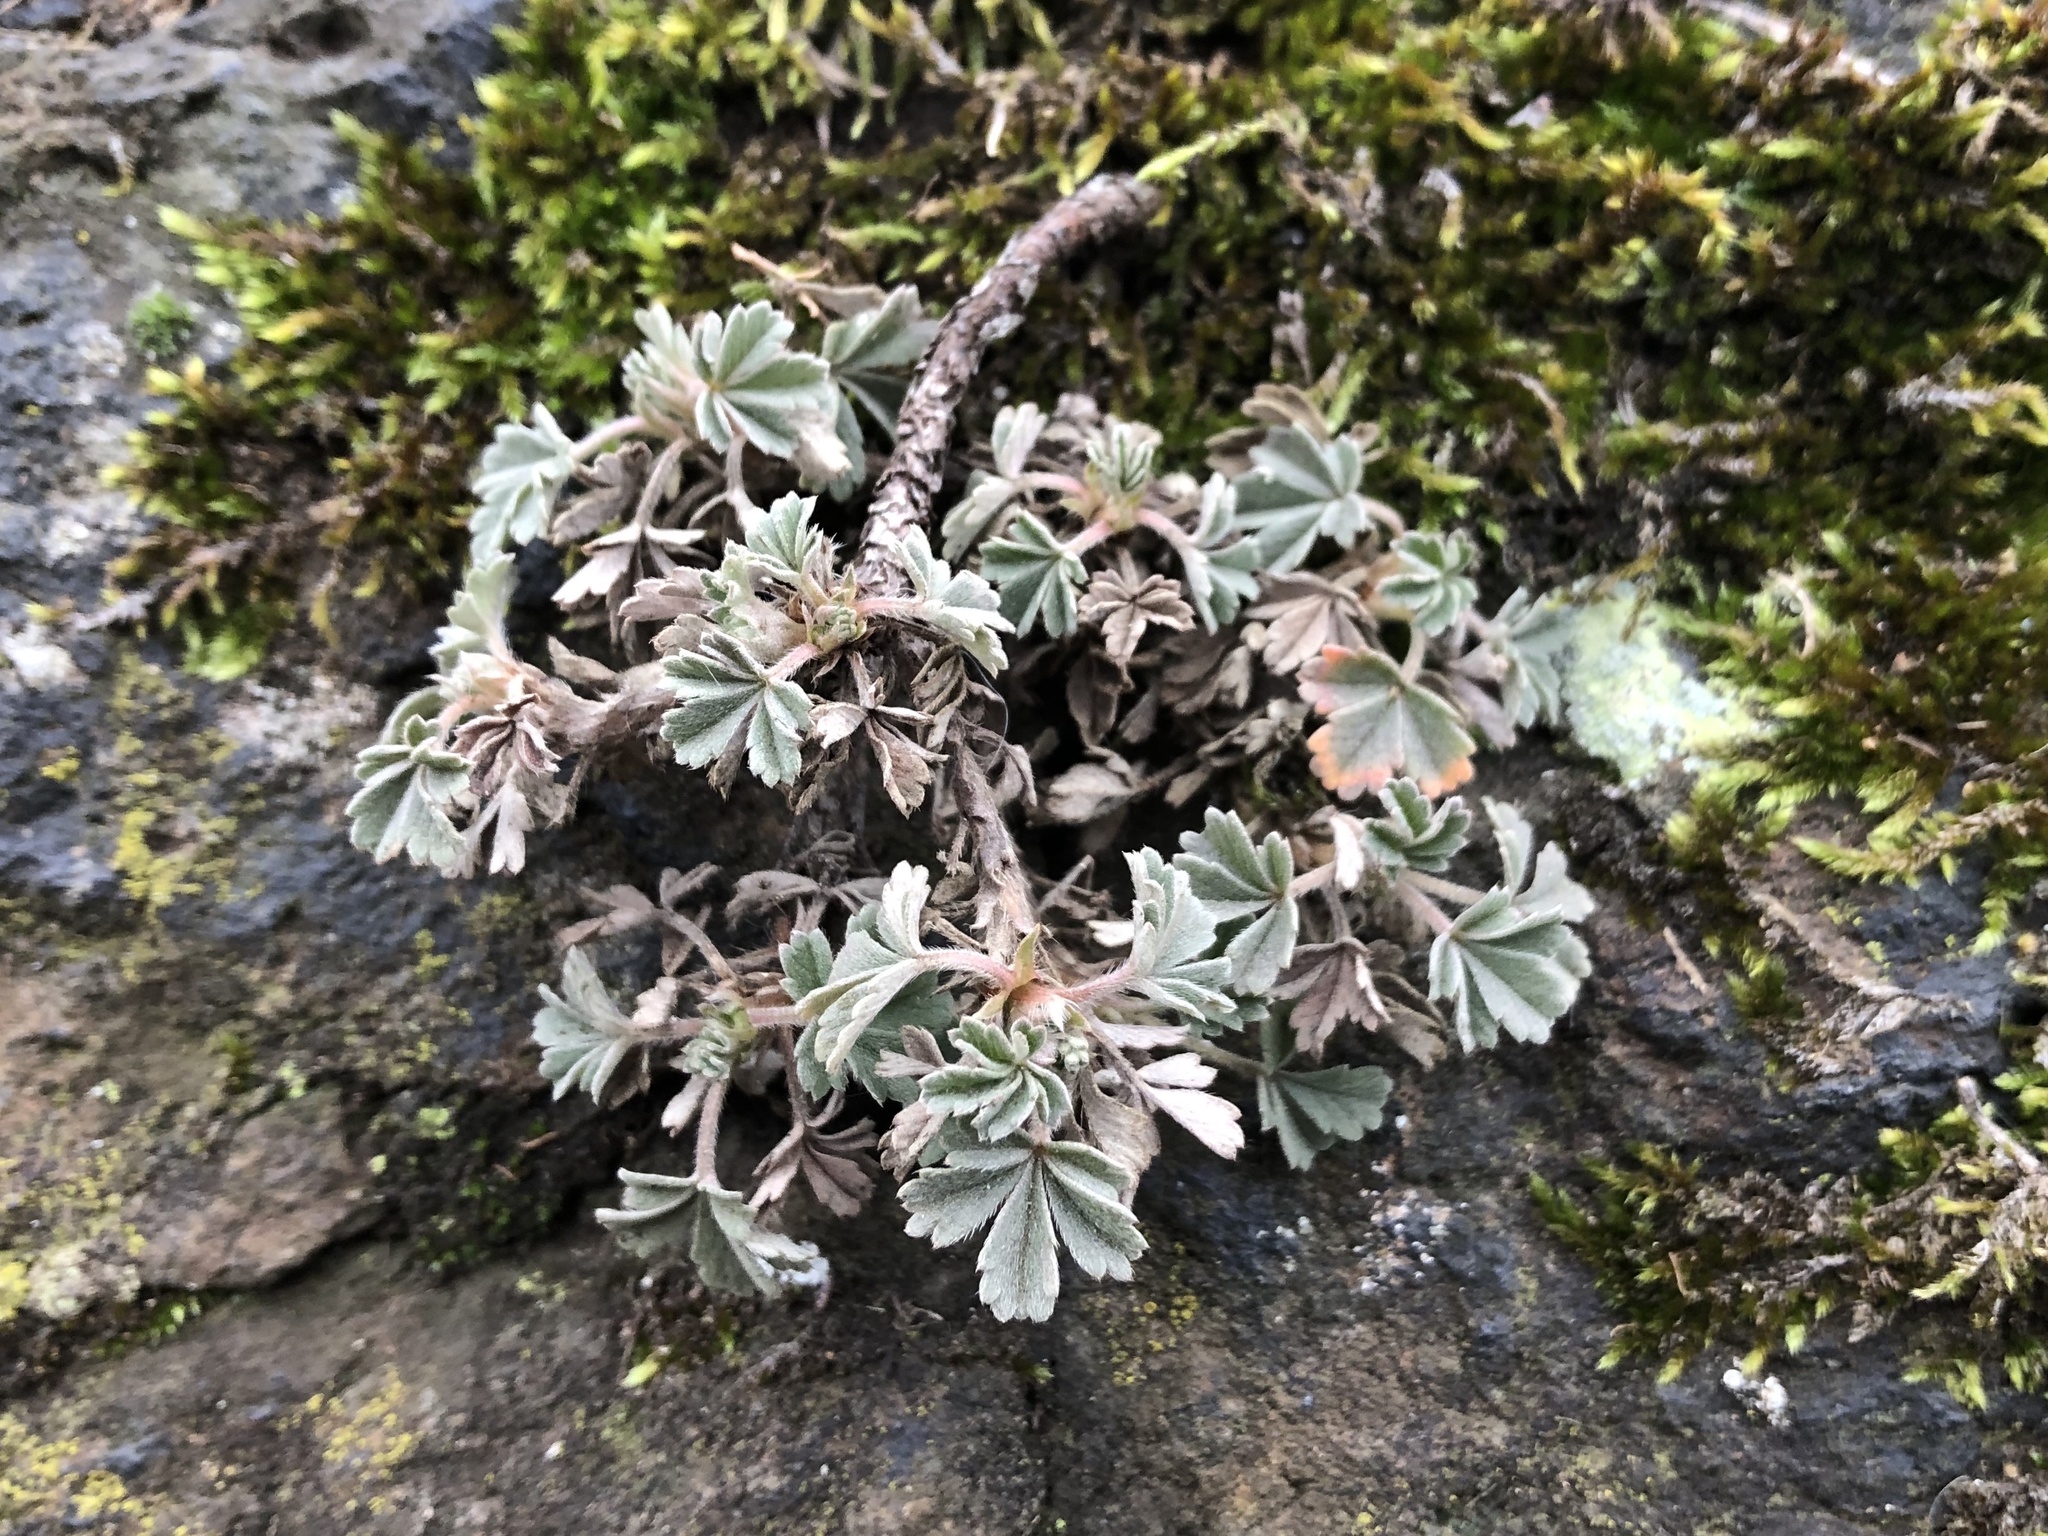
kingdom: Plantae
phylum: Tracheophyta
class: Magnoliopsida
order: Rosales
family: Rosaceae
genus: Potentilla
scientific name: Potentilla incana
